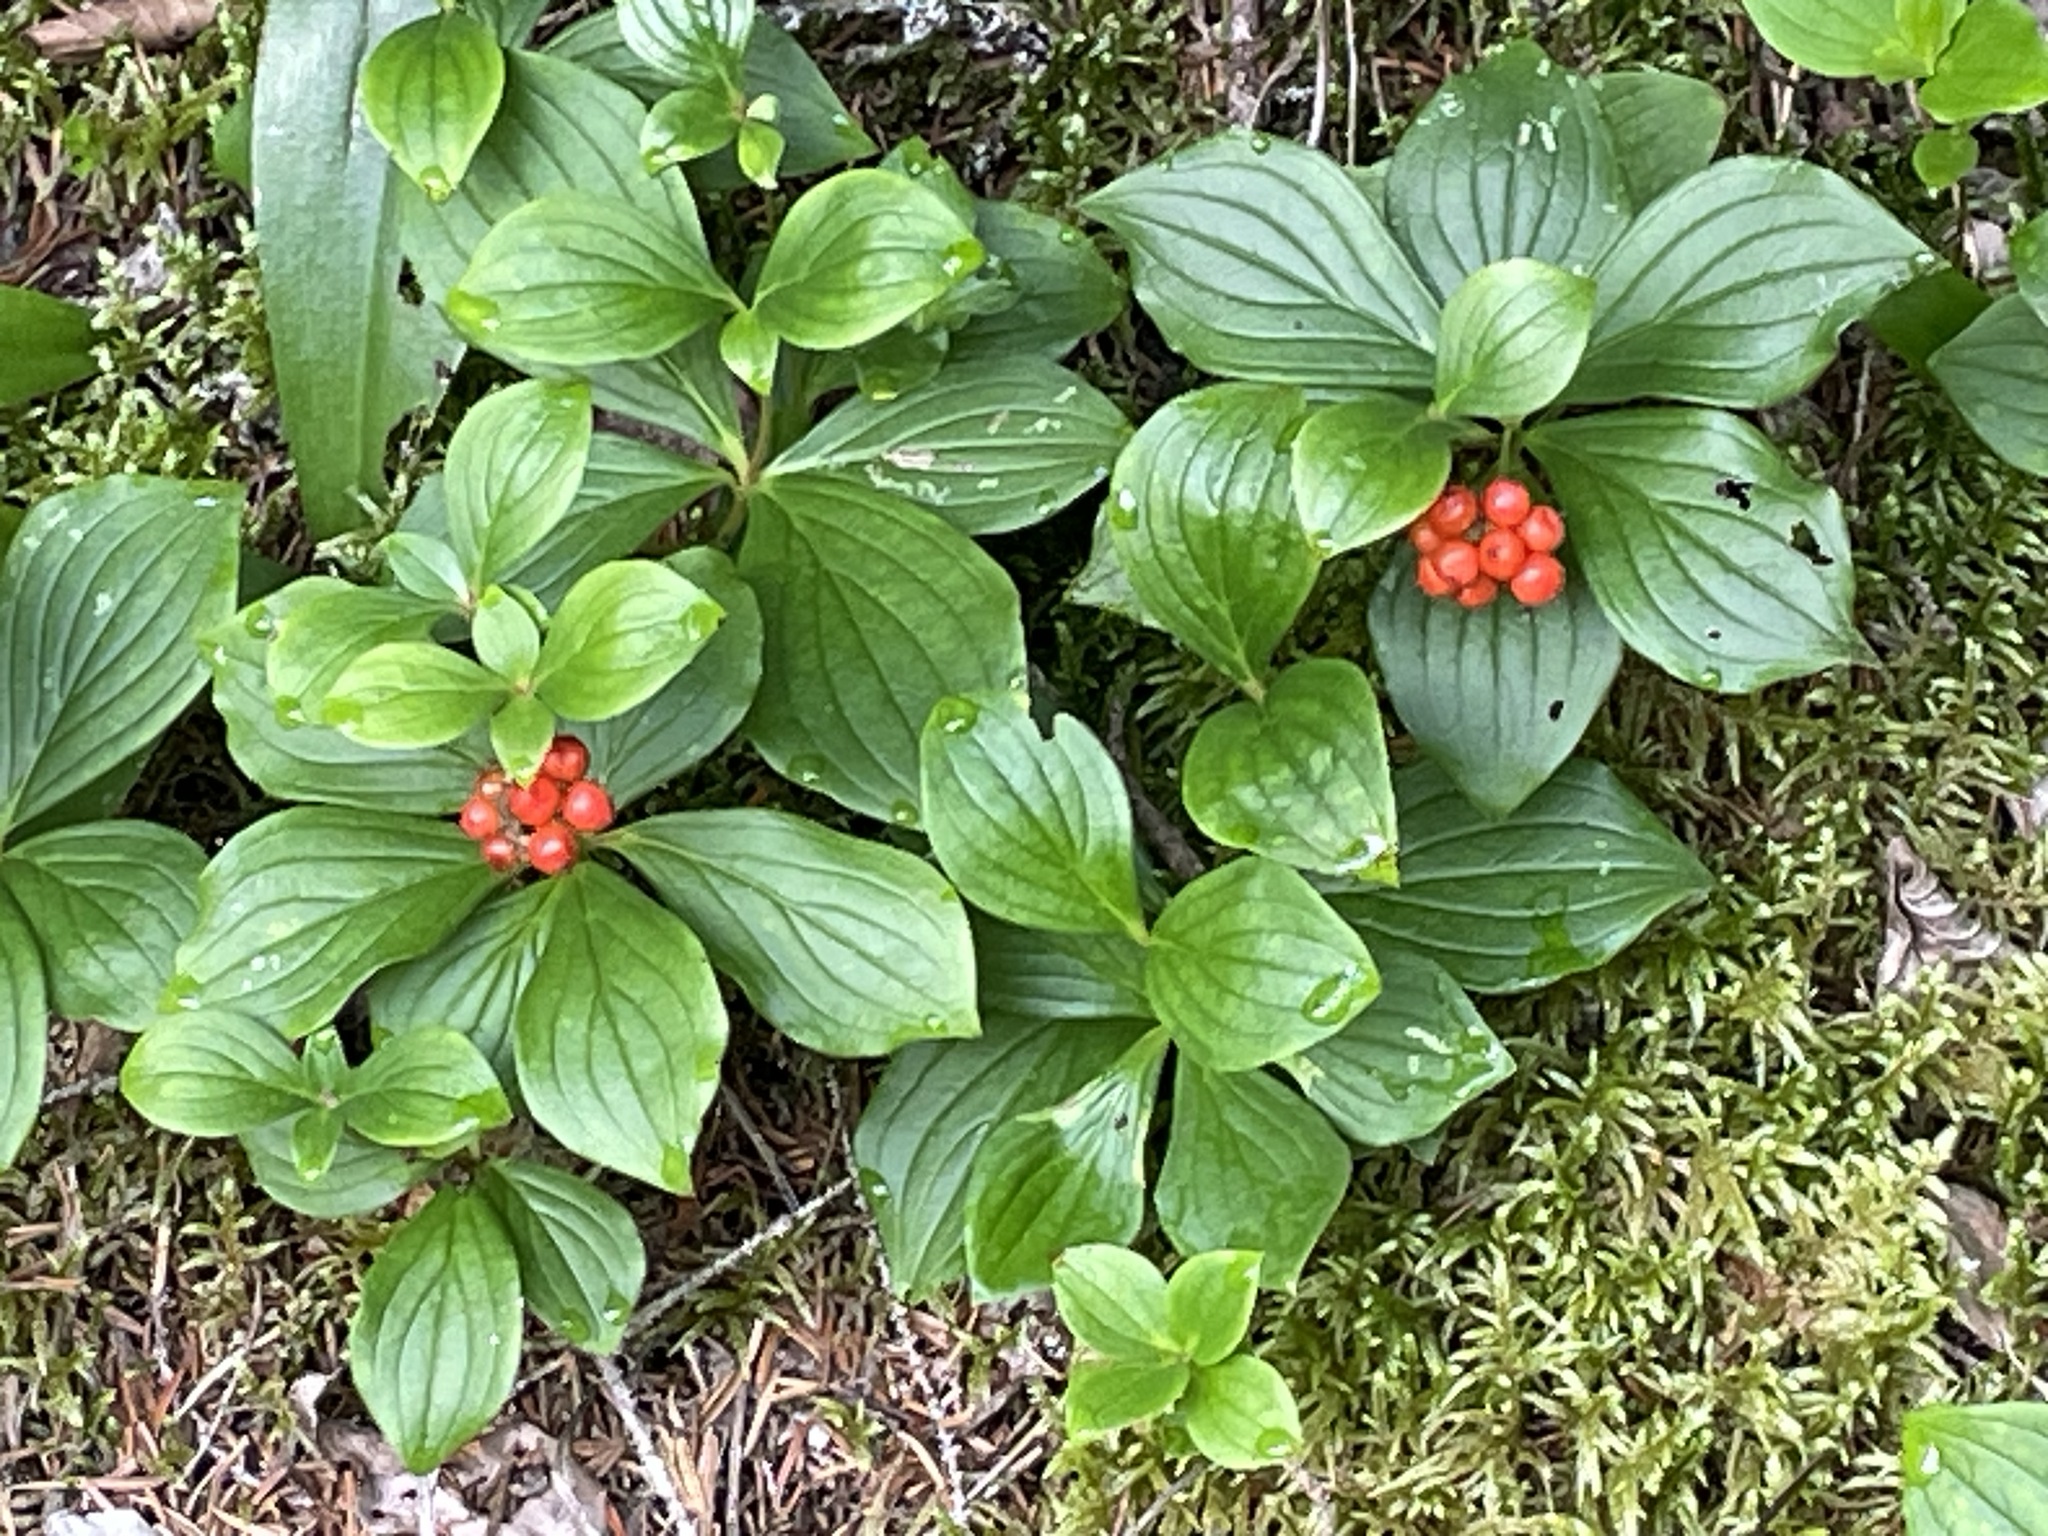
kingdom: Plantae
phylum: Tracheophyta
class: Magnoliopsida
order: Cornales
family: Cornaceae
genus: Cornus
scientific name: Cornus canadensis
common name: Creeping dogwood
